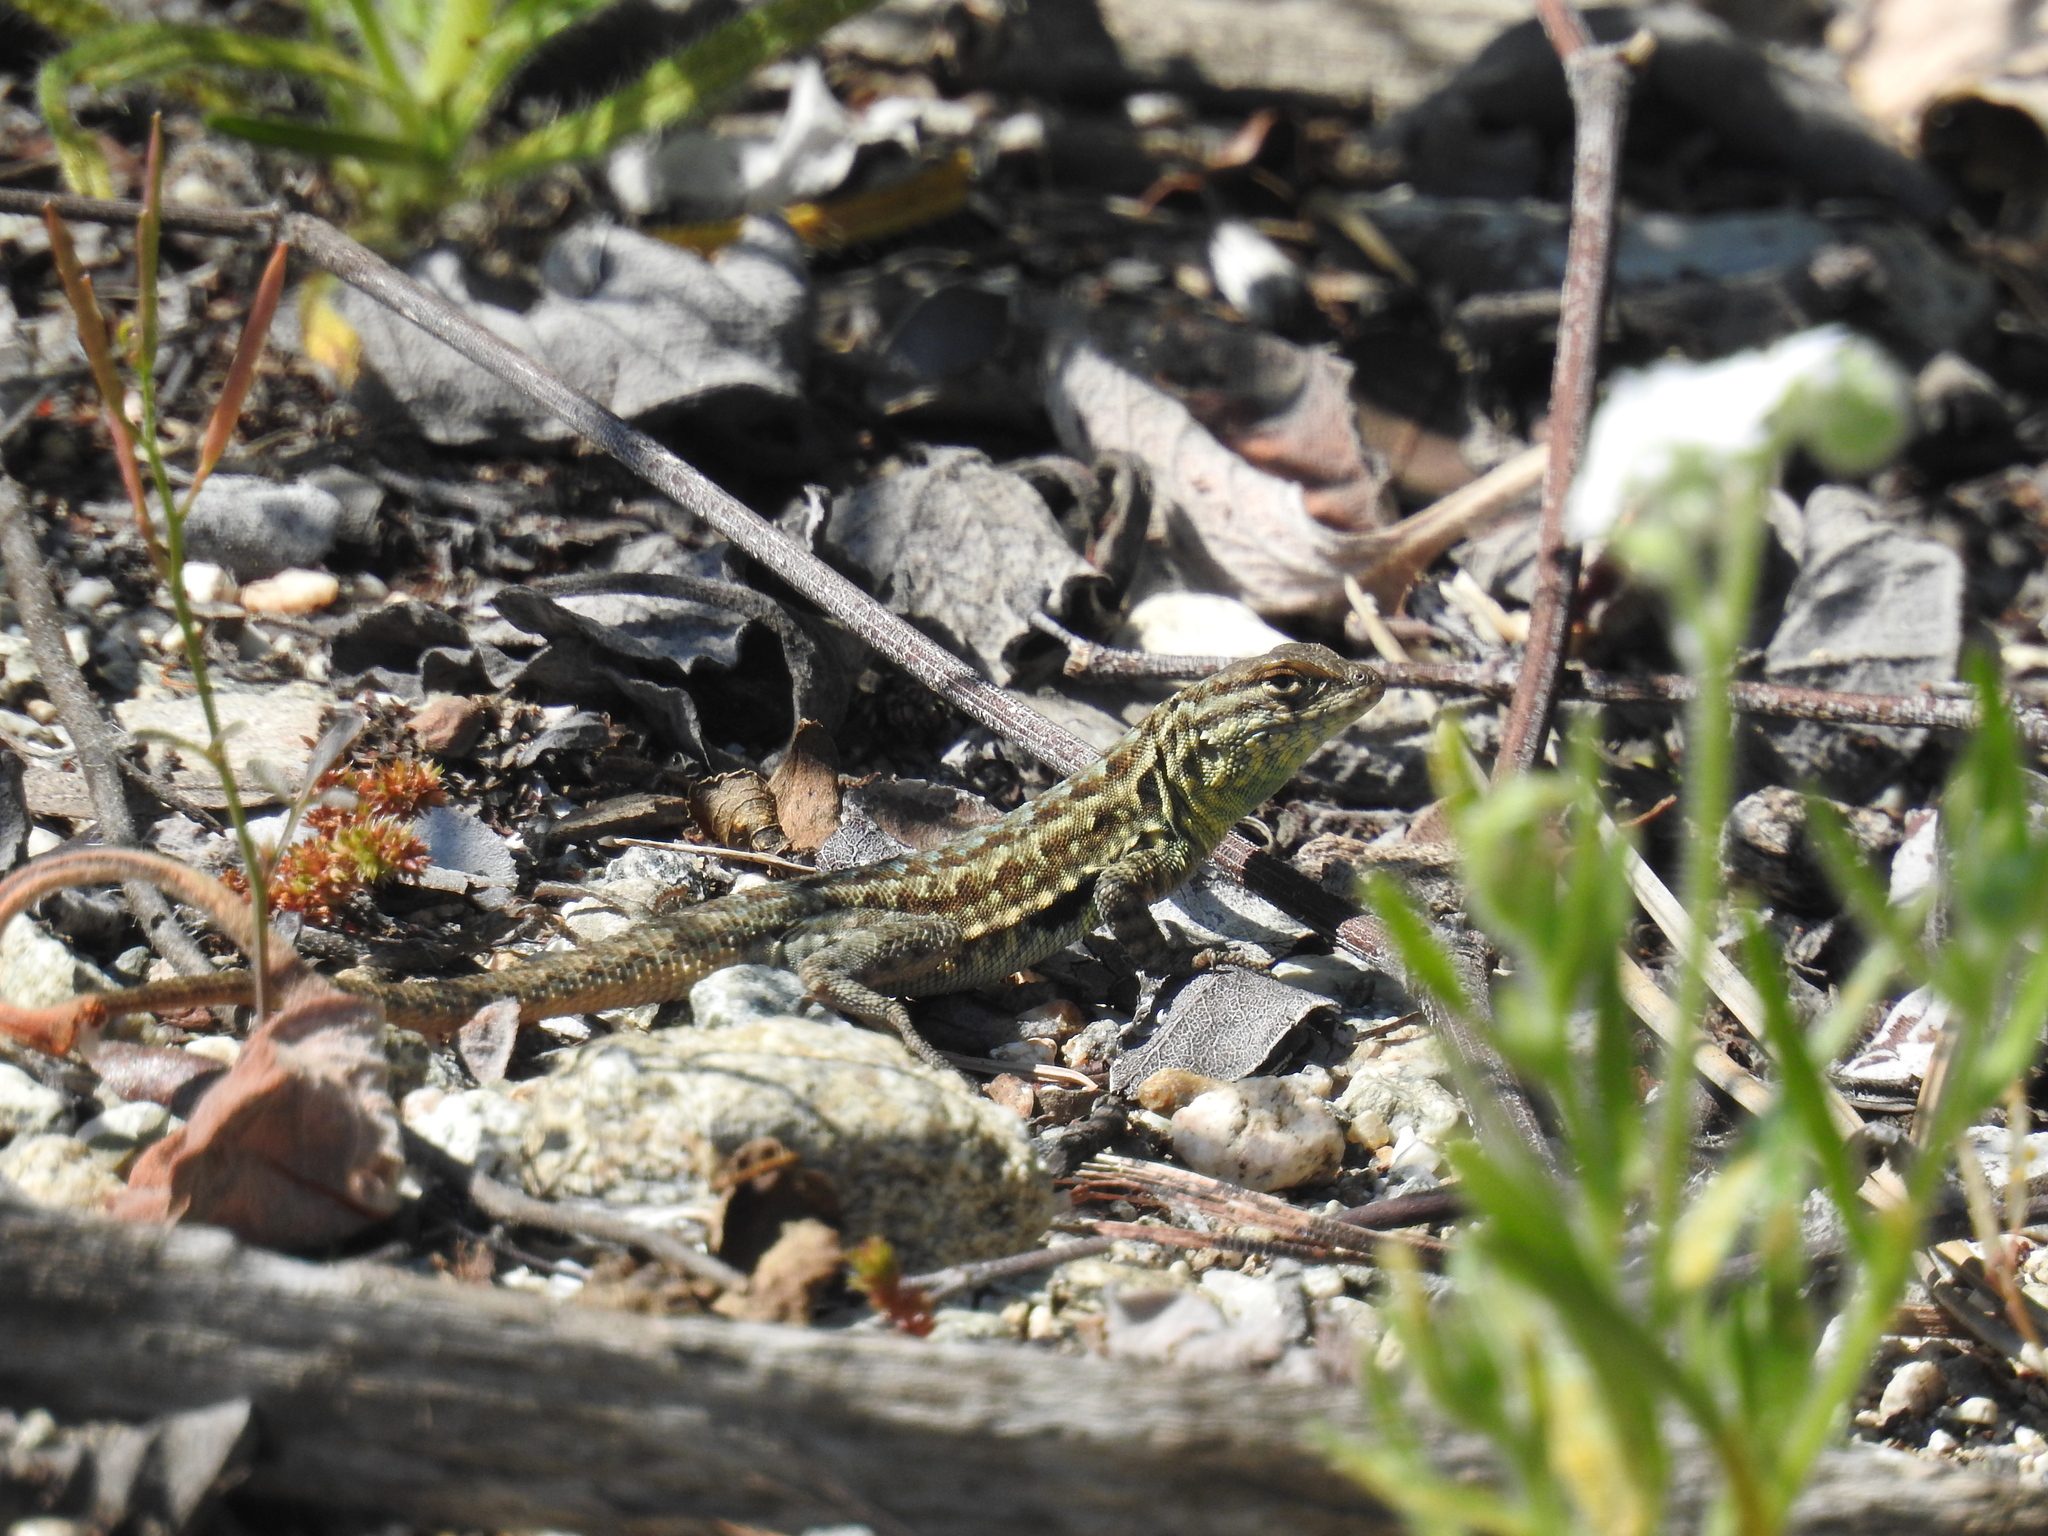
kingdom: Animalia
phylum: Chordata
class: Squamata
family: Phrynosomatidae
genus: Uta
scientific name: Uta stansburiana
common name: Side-blotched lizard
